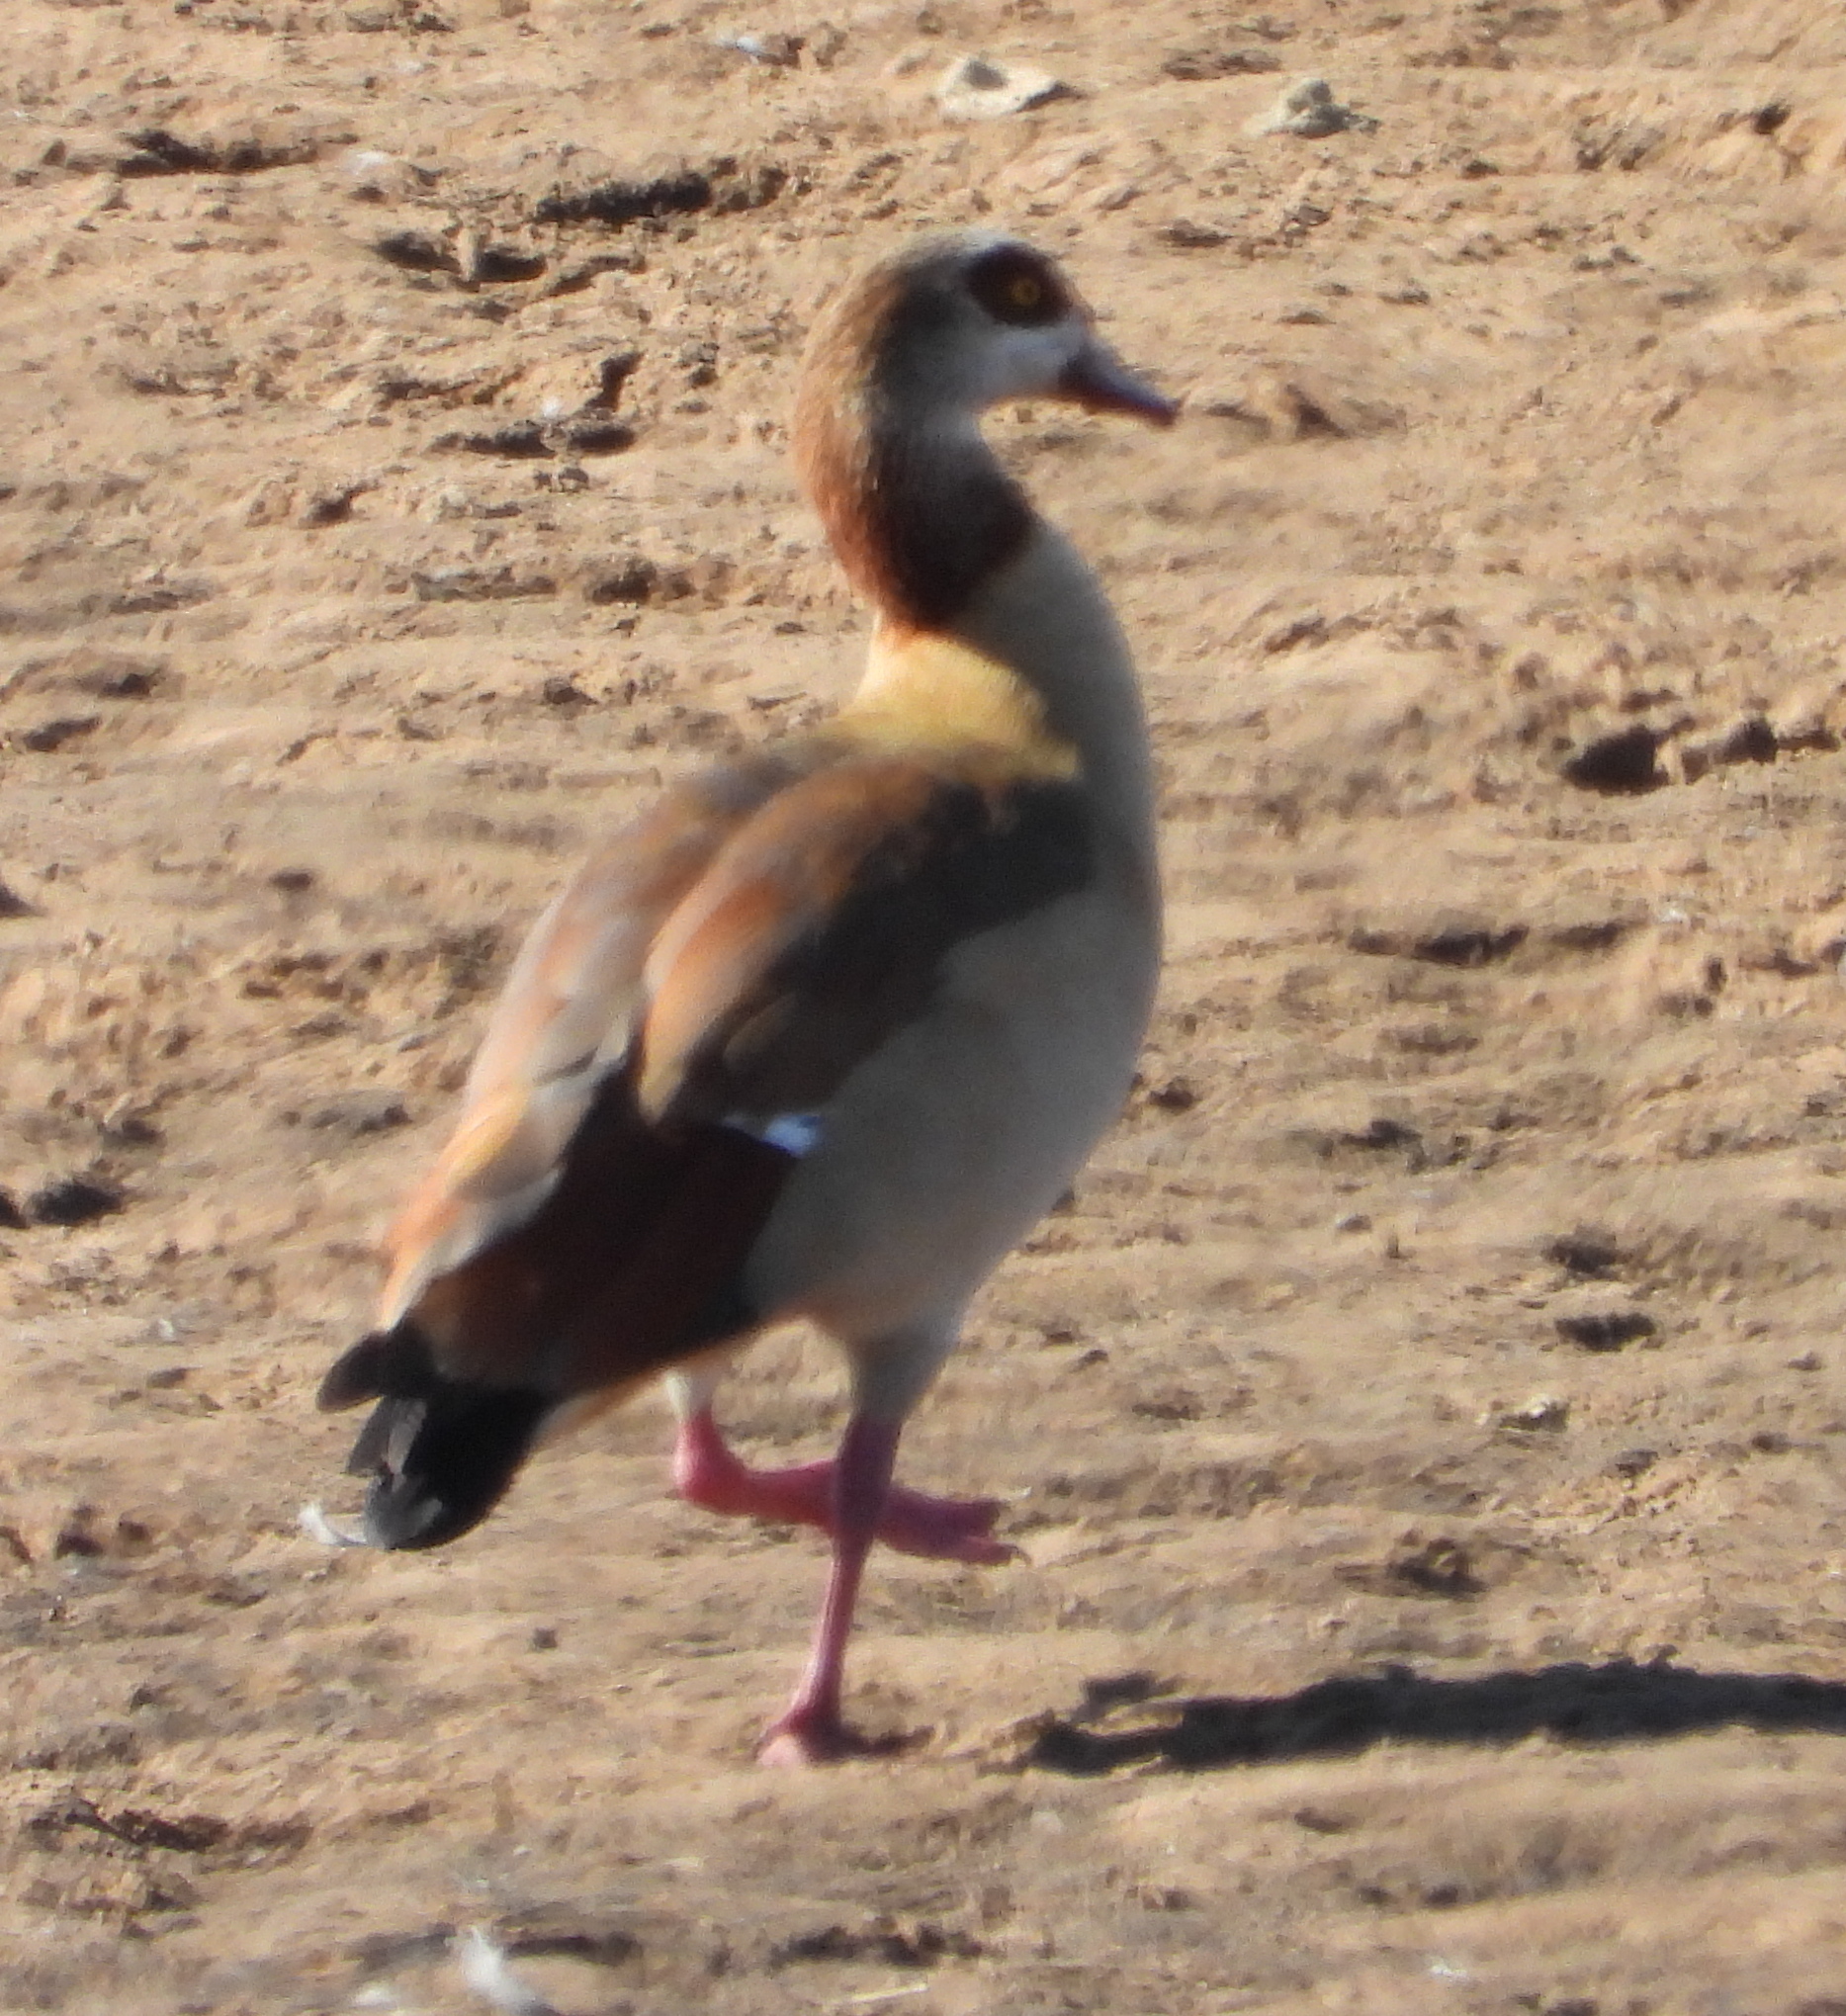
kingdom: Animalia
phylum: Chordata
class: Aves
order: Anseriformes
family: Anatidae
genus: Alopochen
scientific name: Alopochen aegyptiaca
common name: Egyptian goose
